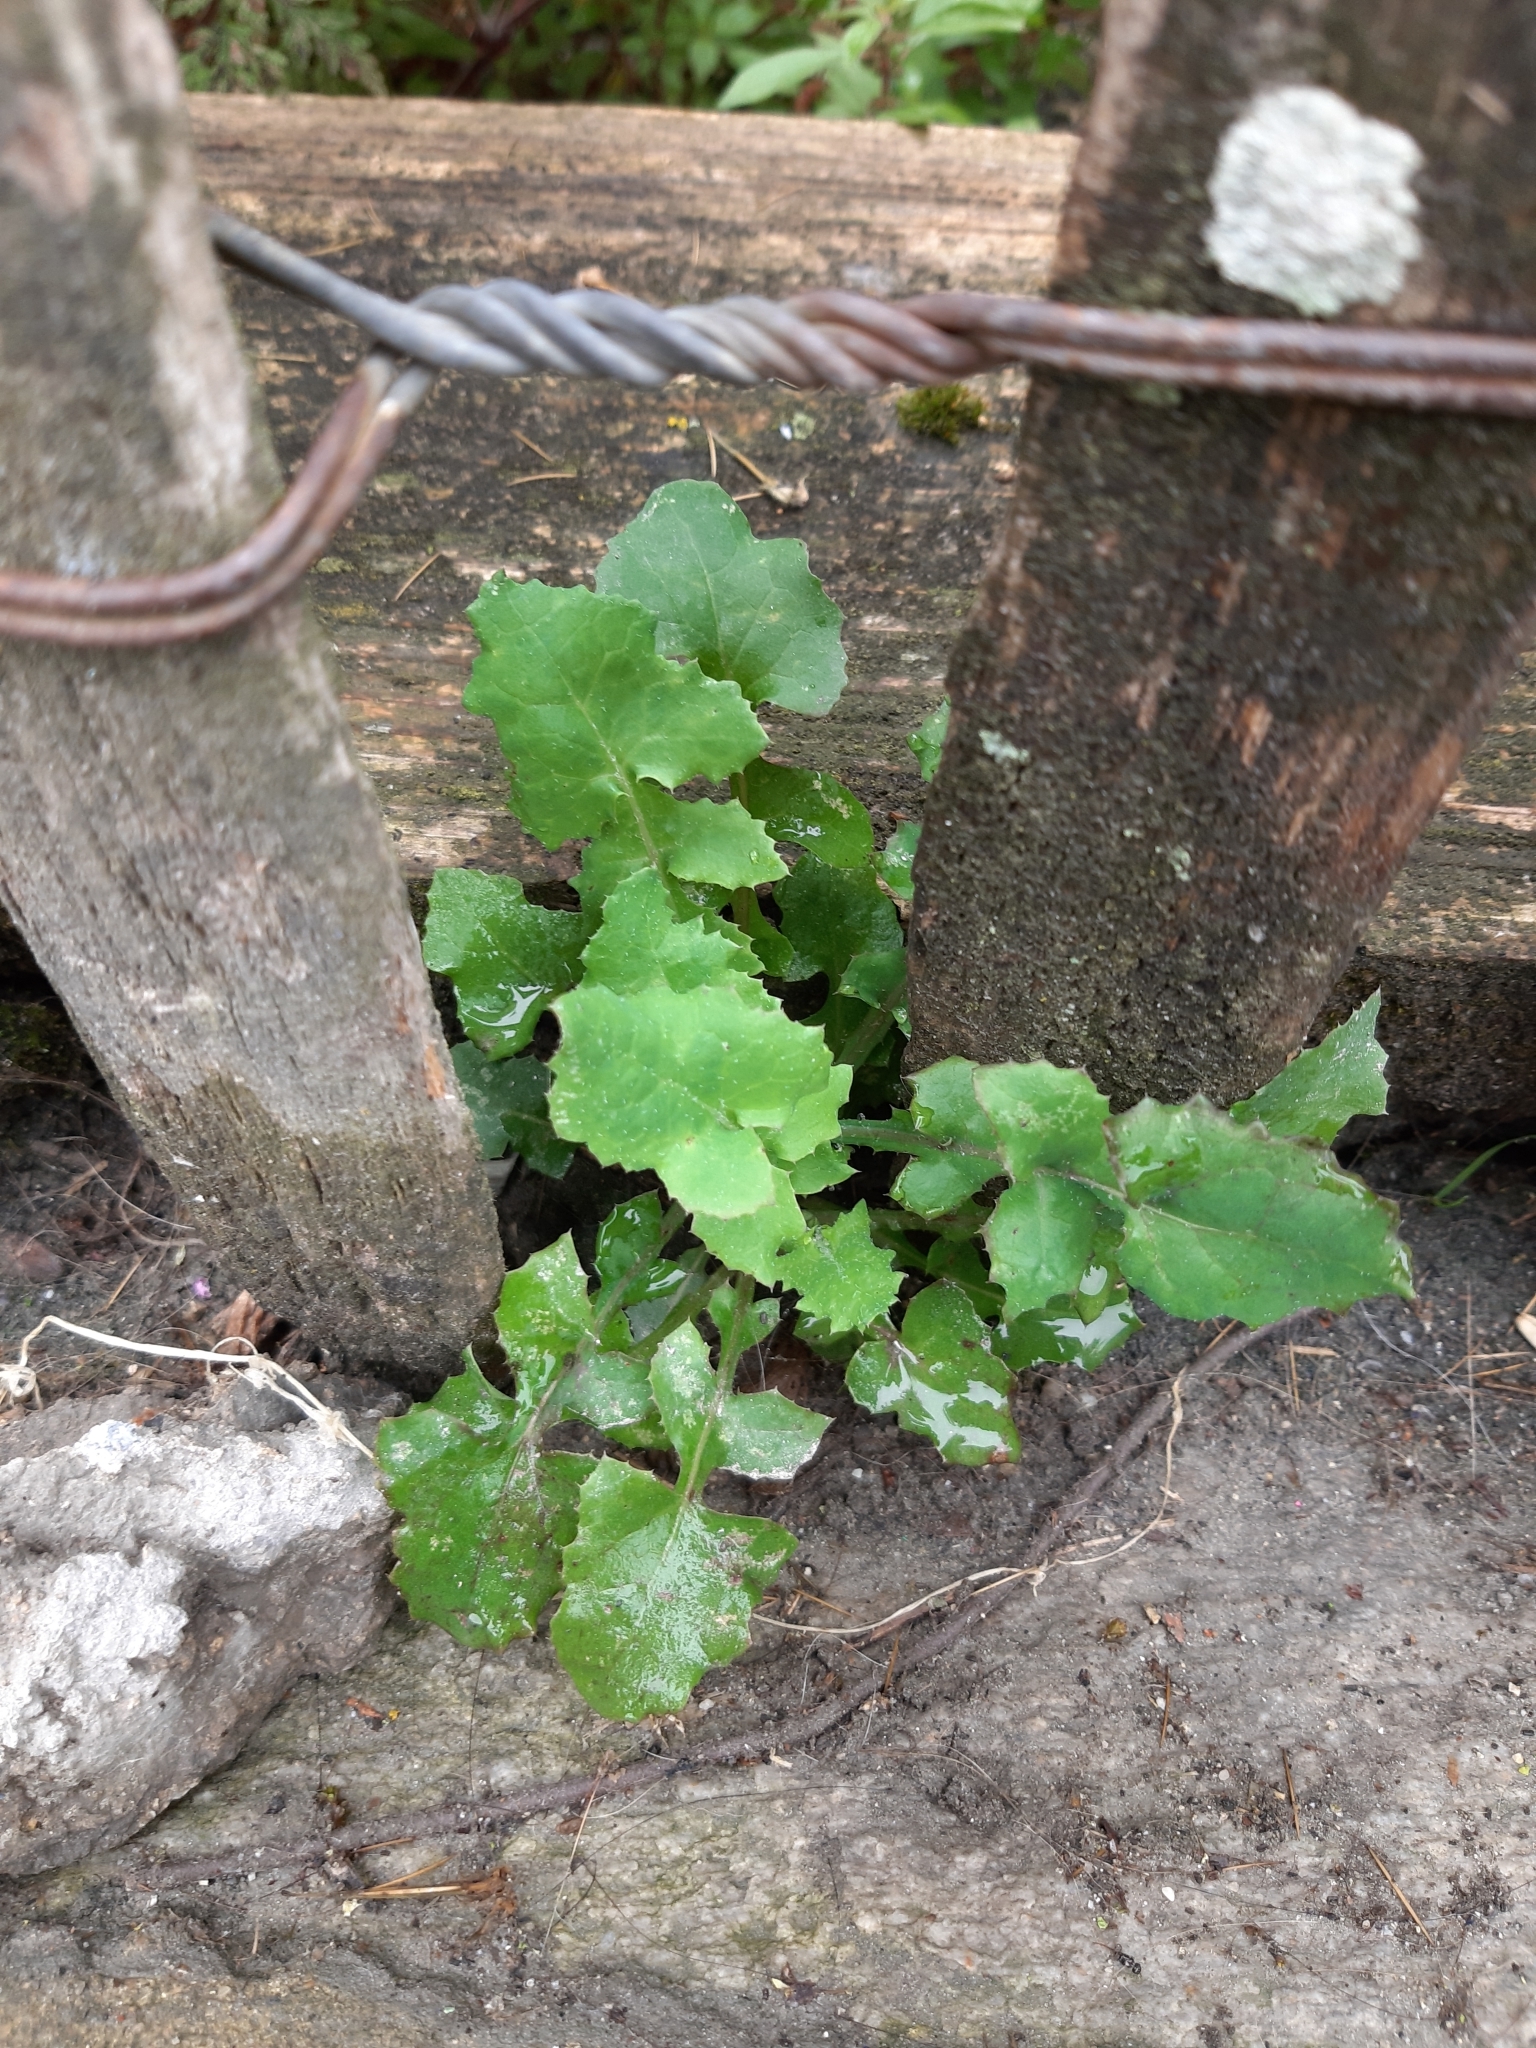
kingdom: Plantae
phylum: Tracheophyta
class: Magnoliopsida
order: Asterales
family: Asteraceae
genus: Sonchus
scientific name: Sonchus oleraceus
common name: Common sowthistle
